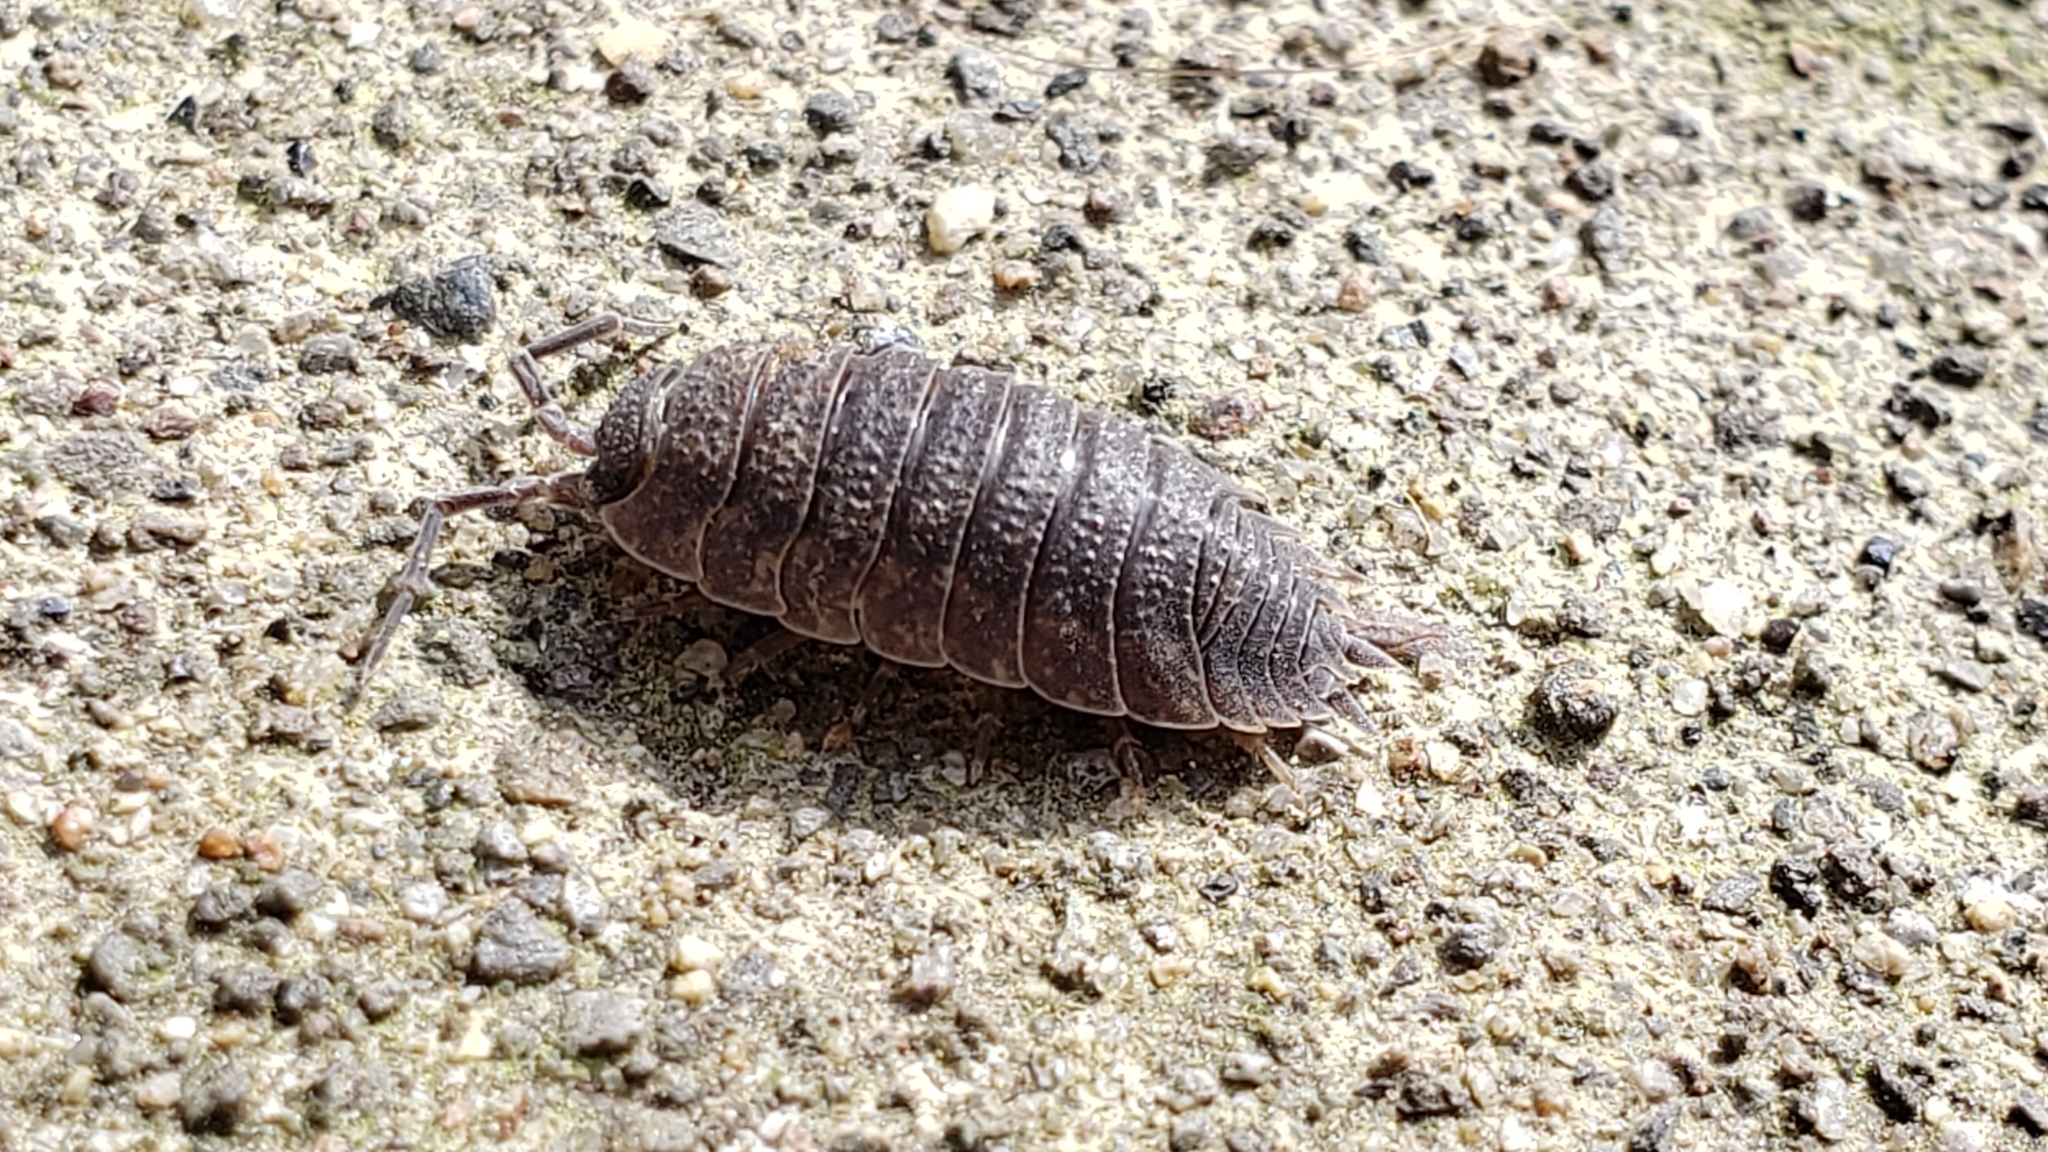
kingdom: Animalia
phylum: Arthropoda
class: Malacostraca
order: Isopoda
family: Porcellionidae
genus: Porcellio
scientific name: Porcellio scaber
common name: Common rough woodlouse
